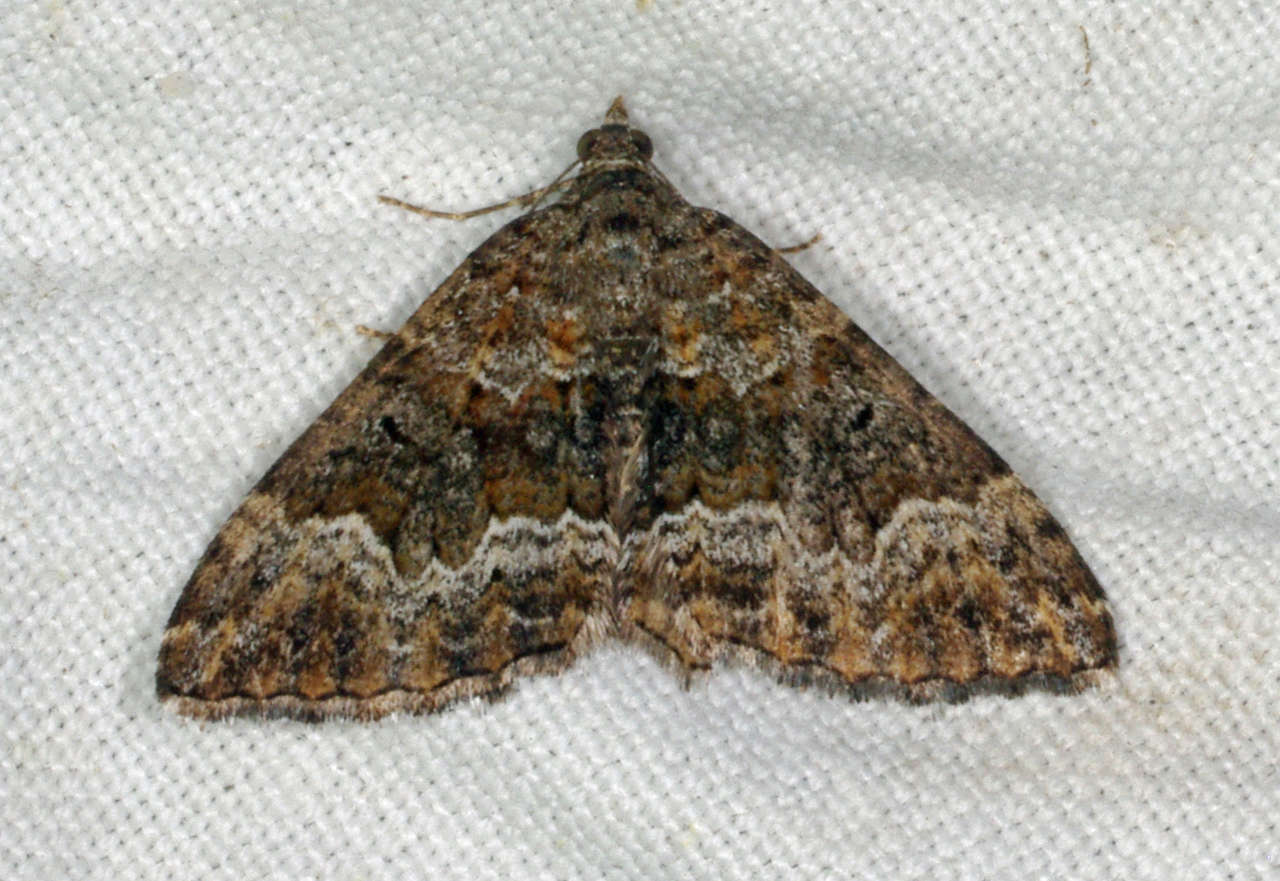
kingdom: Animalia
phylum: Arthropoda
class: Insecta
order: Lepidoptera
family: Geometridae
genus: Chrysolarentia
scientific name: Chrysolarentia imperviata
